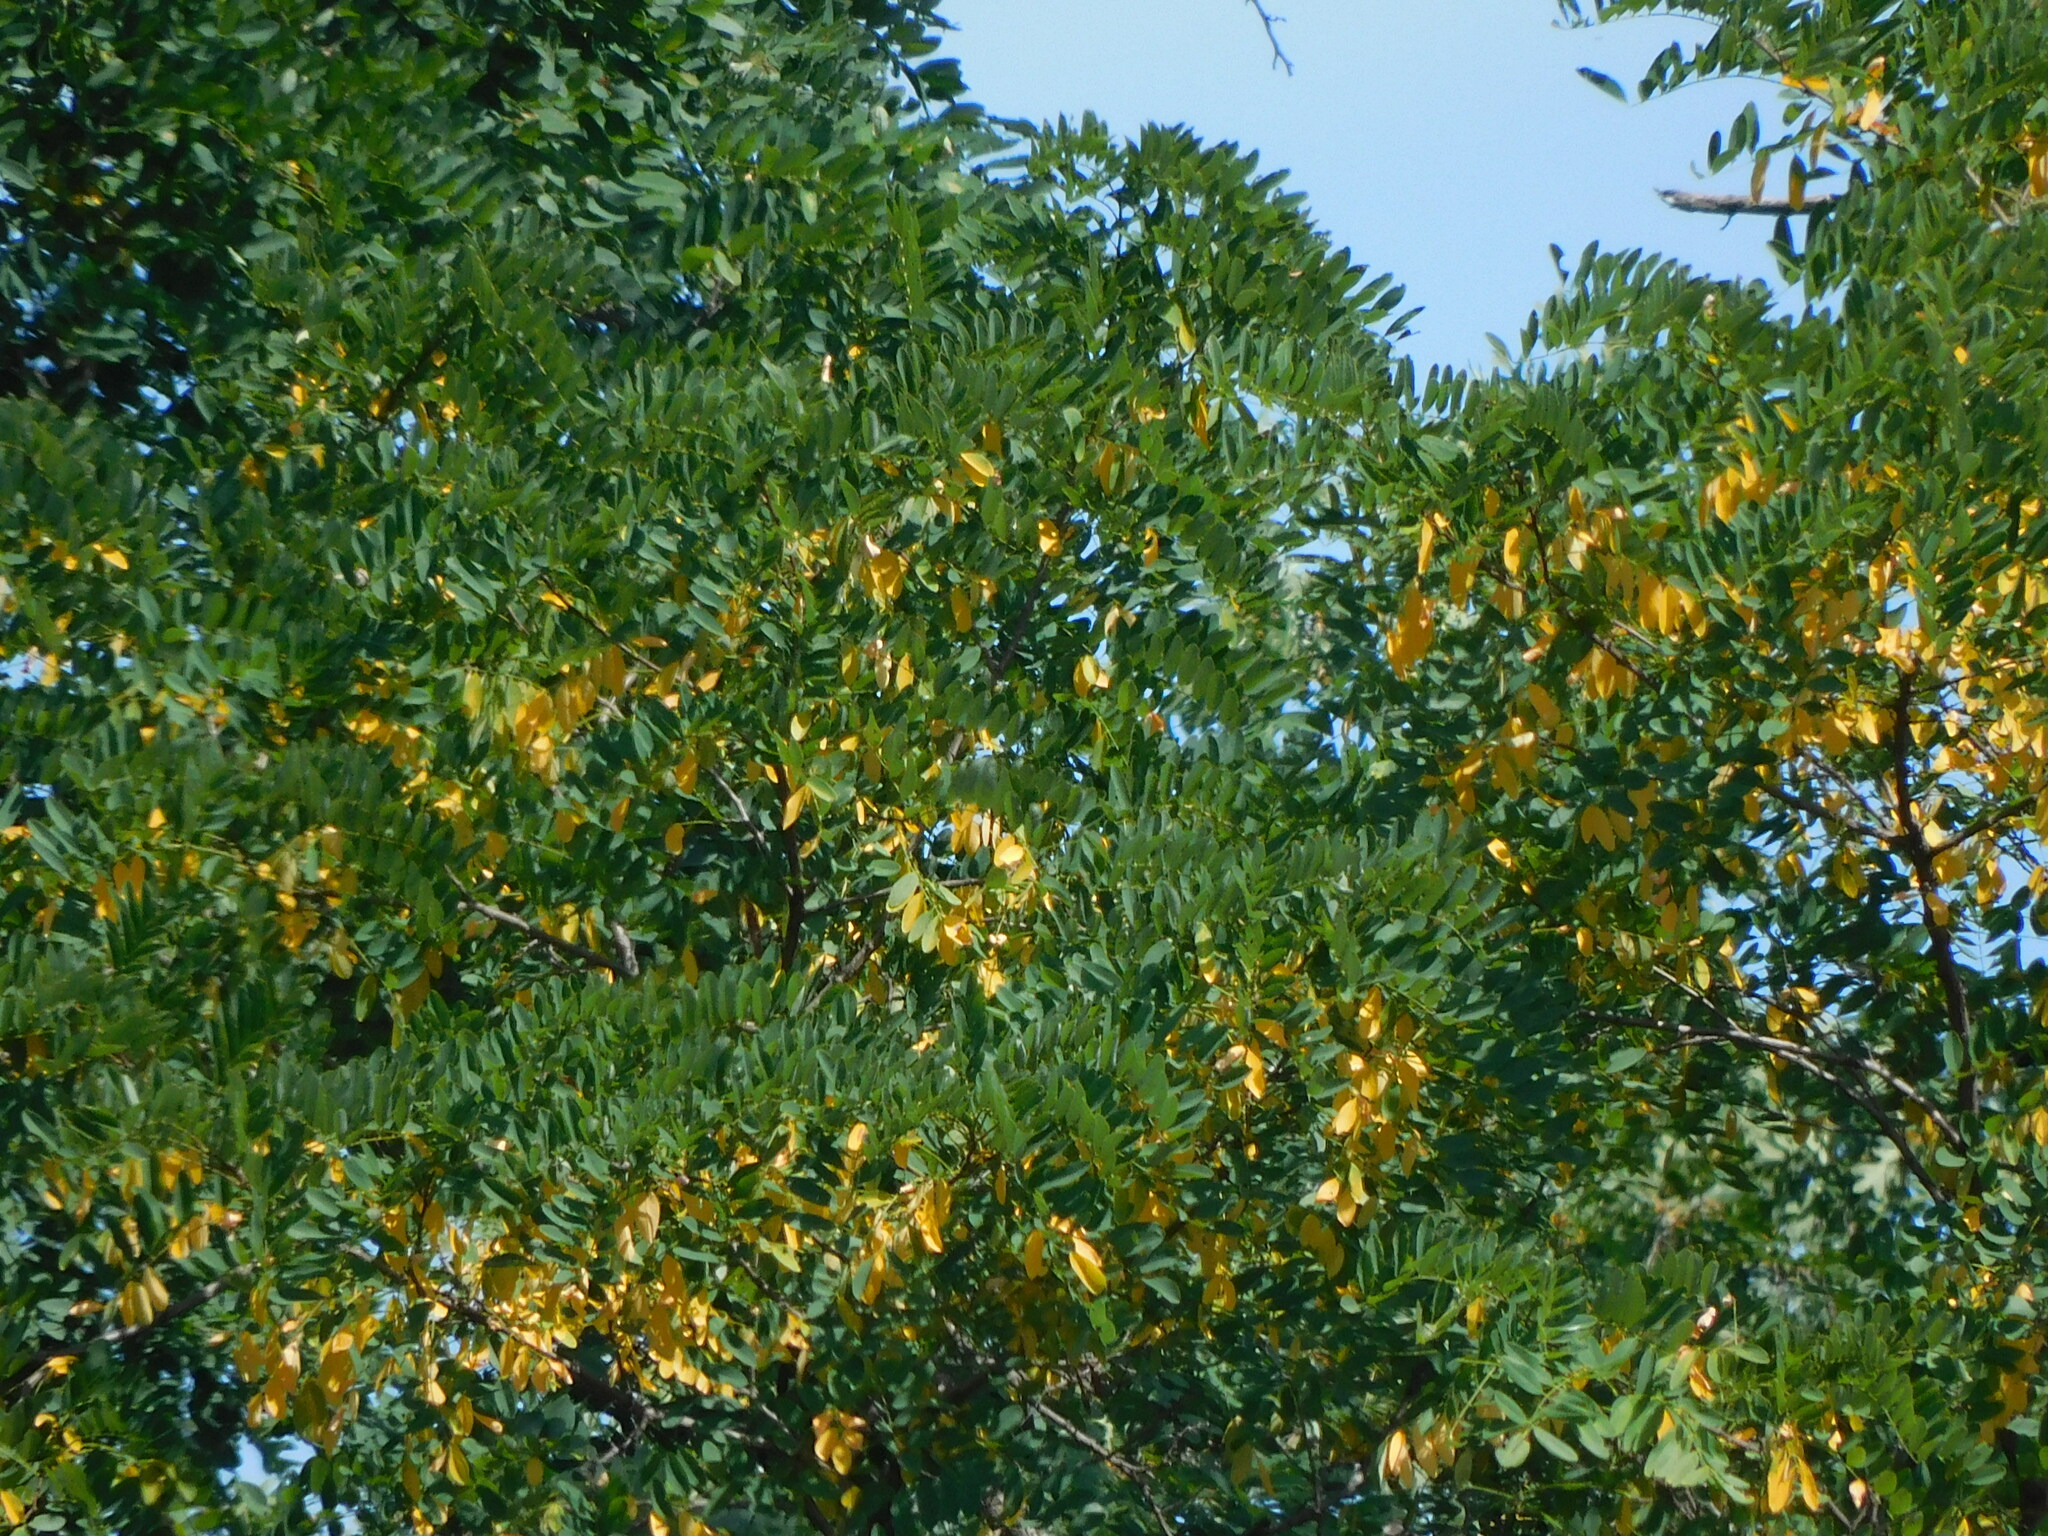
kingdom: Plantae
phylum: Tracheophyta
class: Magnoliopsida
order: Fabales
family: Fabaceae
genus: Robinia
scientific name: Robinia pseudoacacia
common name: Black locust
